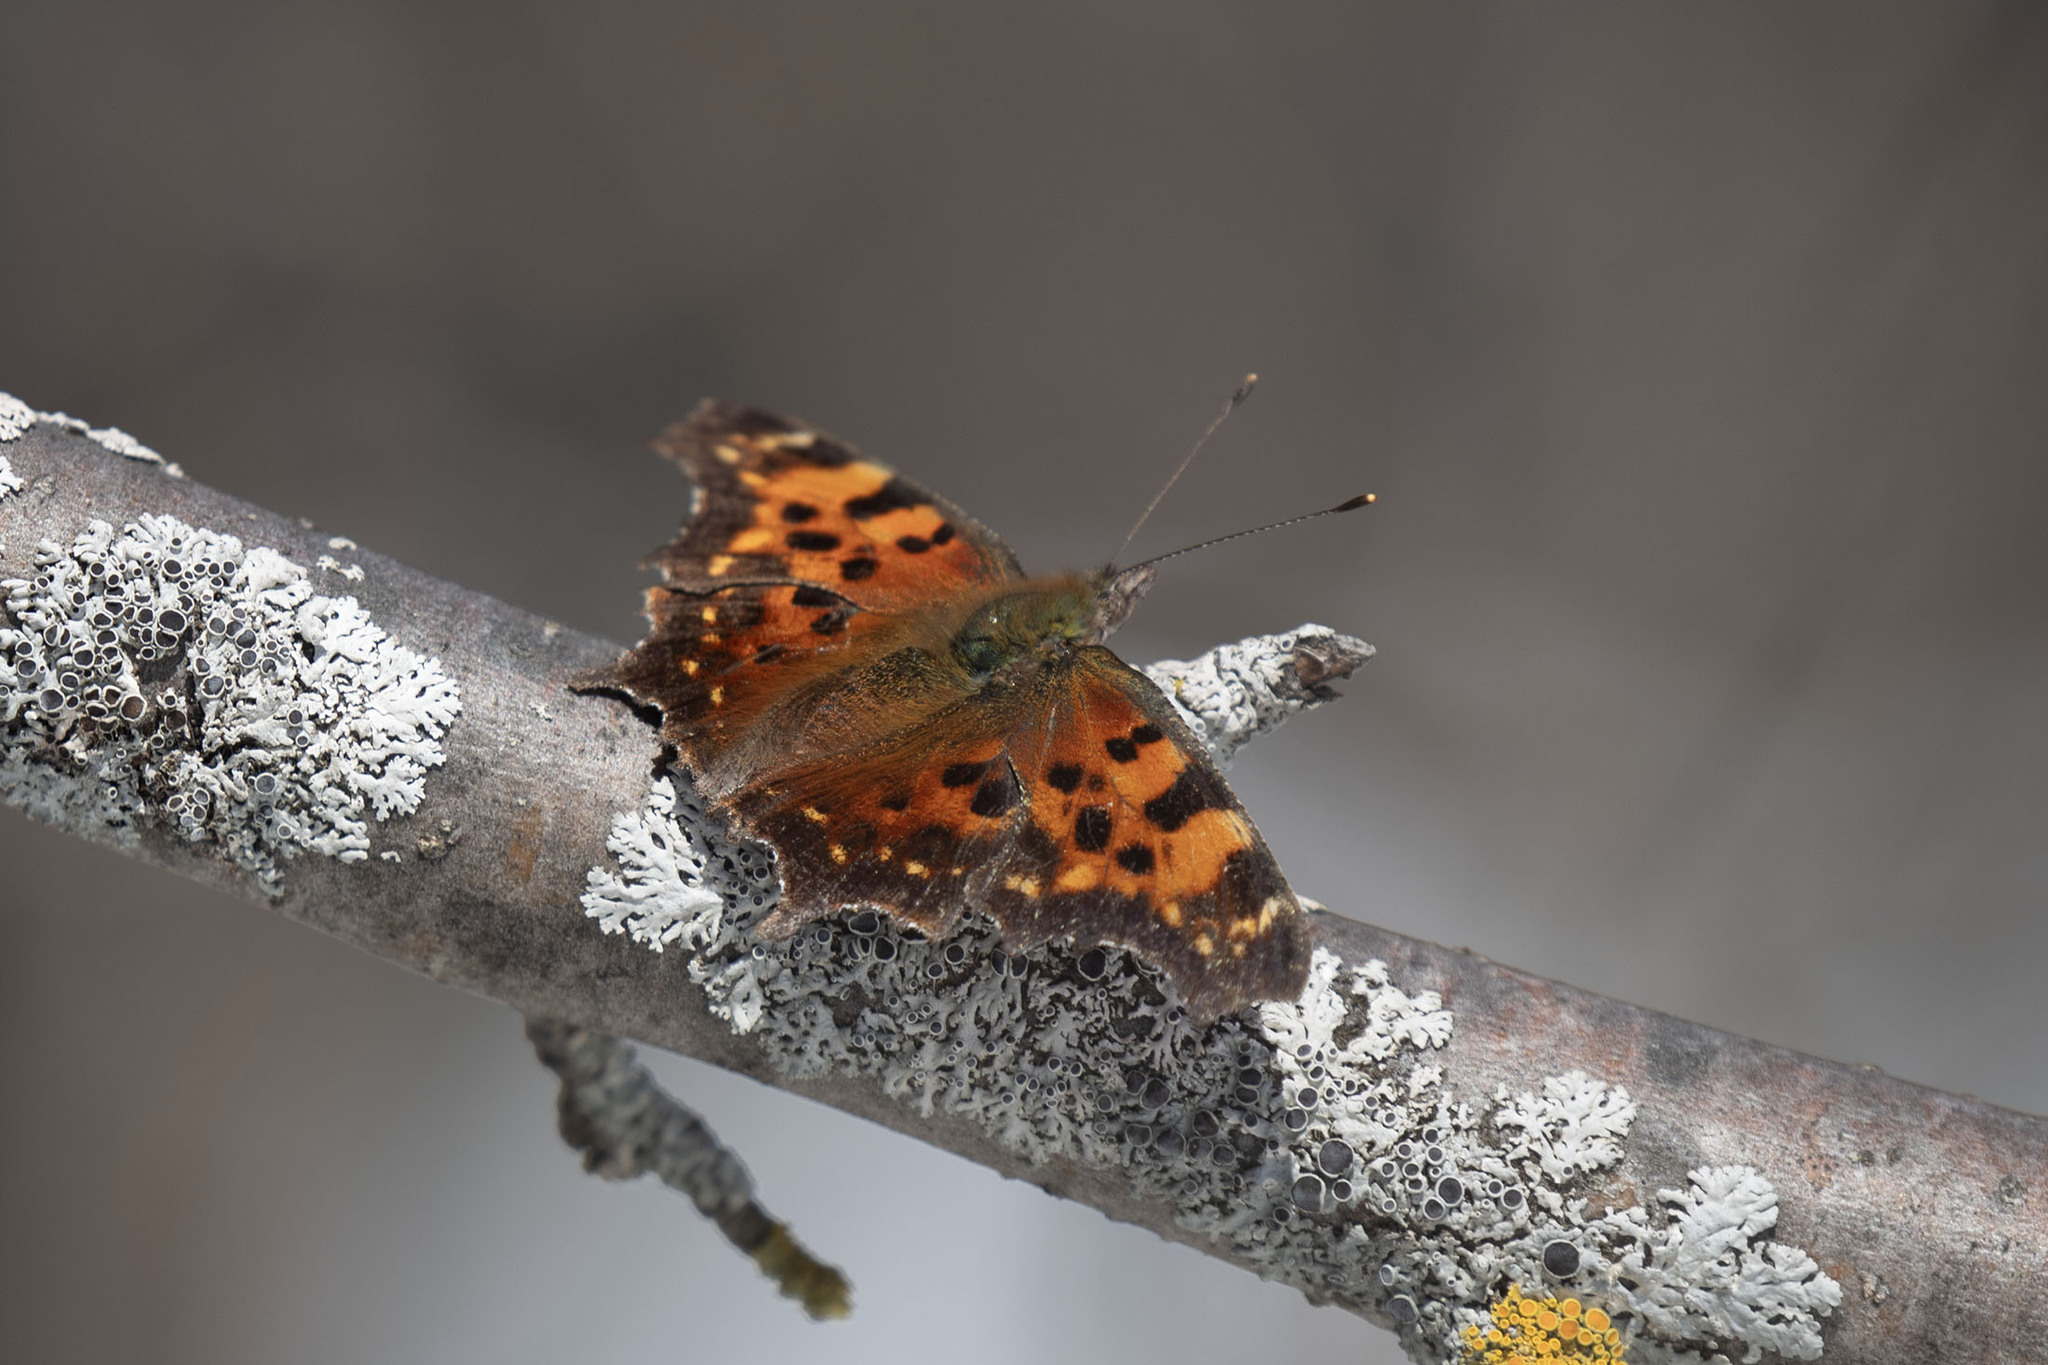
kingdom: Animalia
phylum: Arthropoda
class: Insecta
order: Lepidoptera
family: Nymphalidae
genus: Polygonia
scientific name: Polygonia faunus
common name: Green comma
